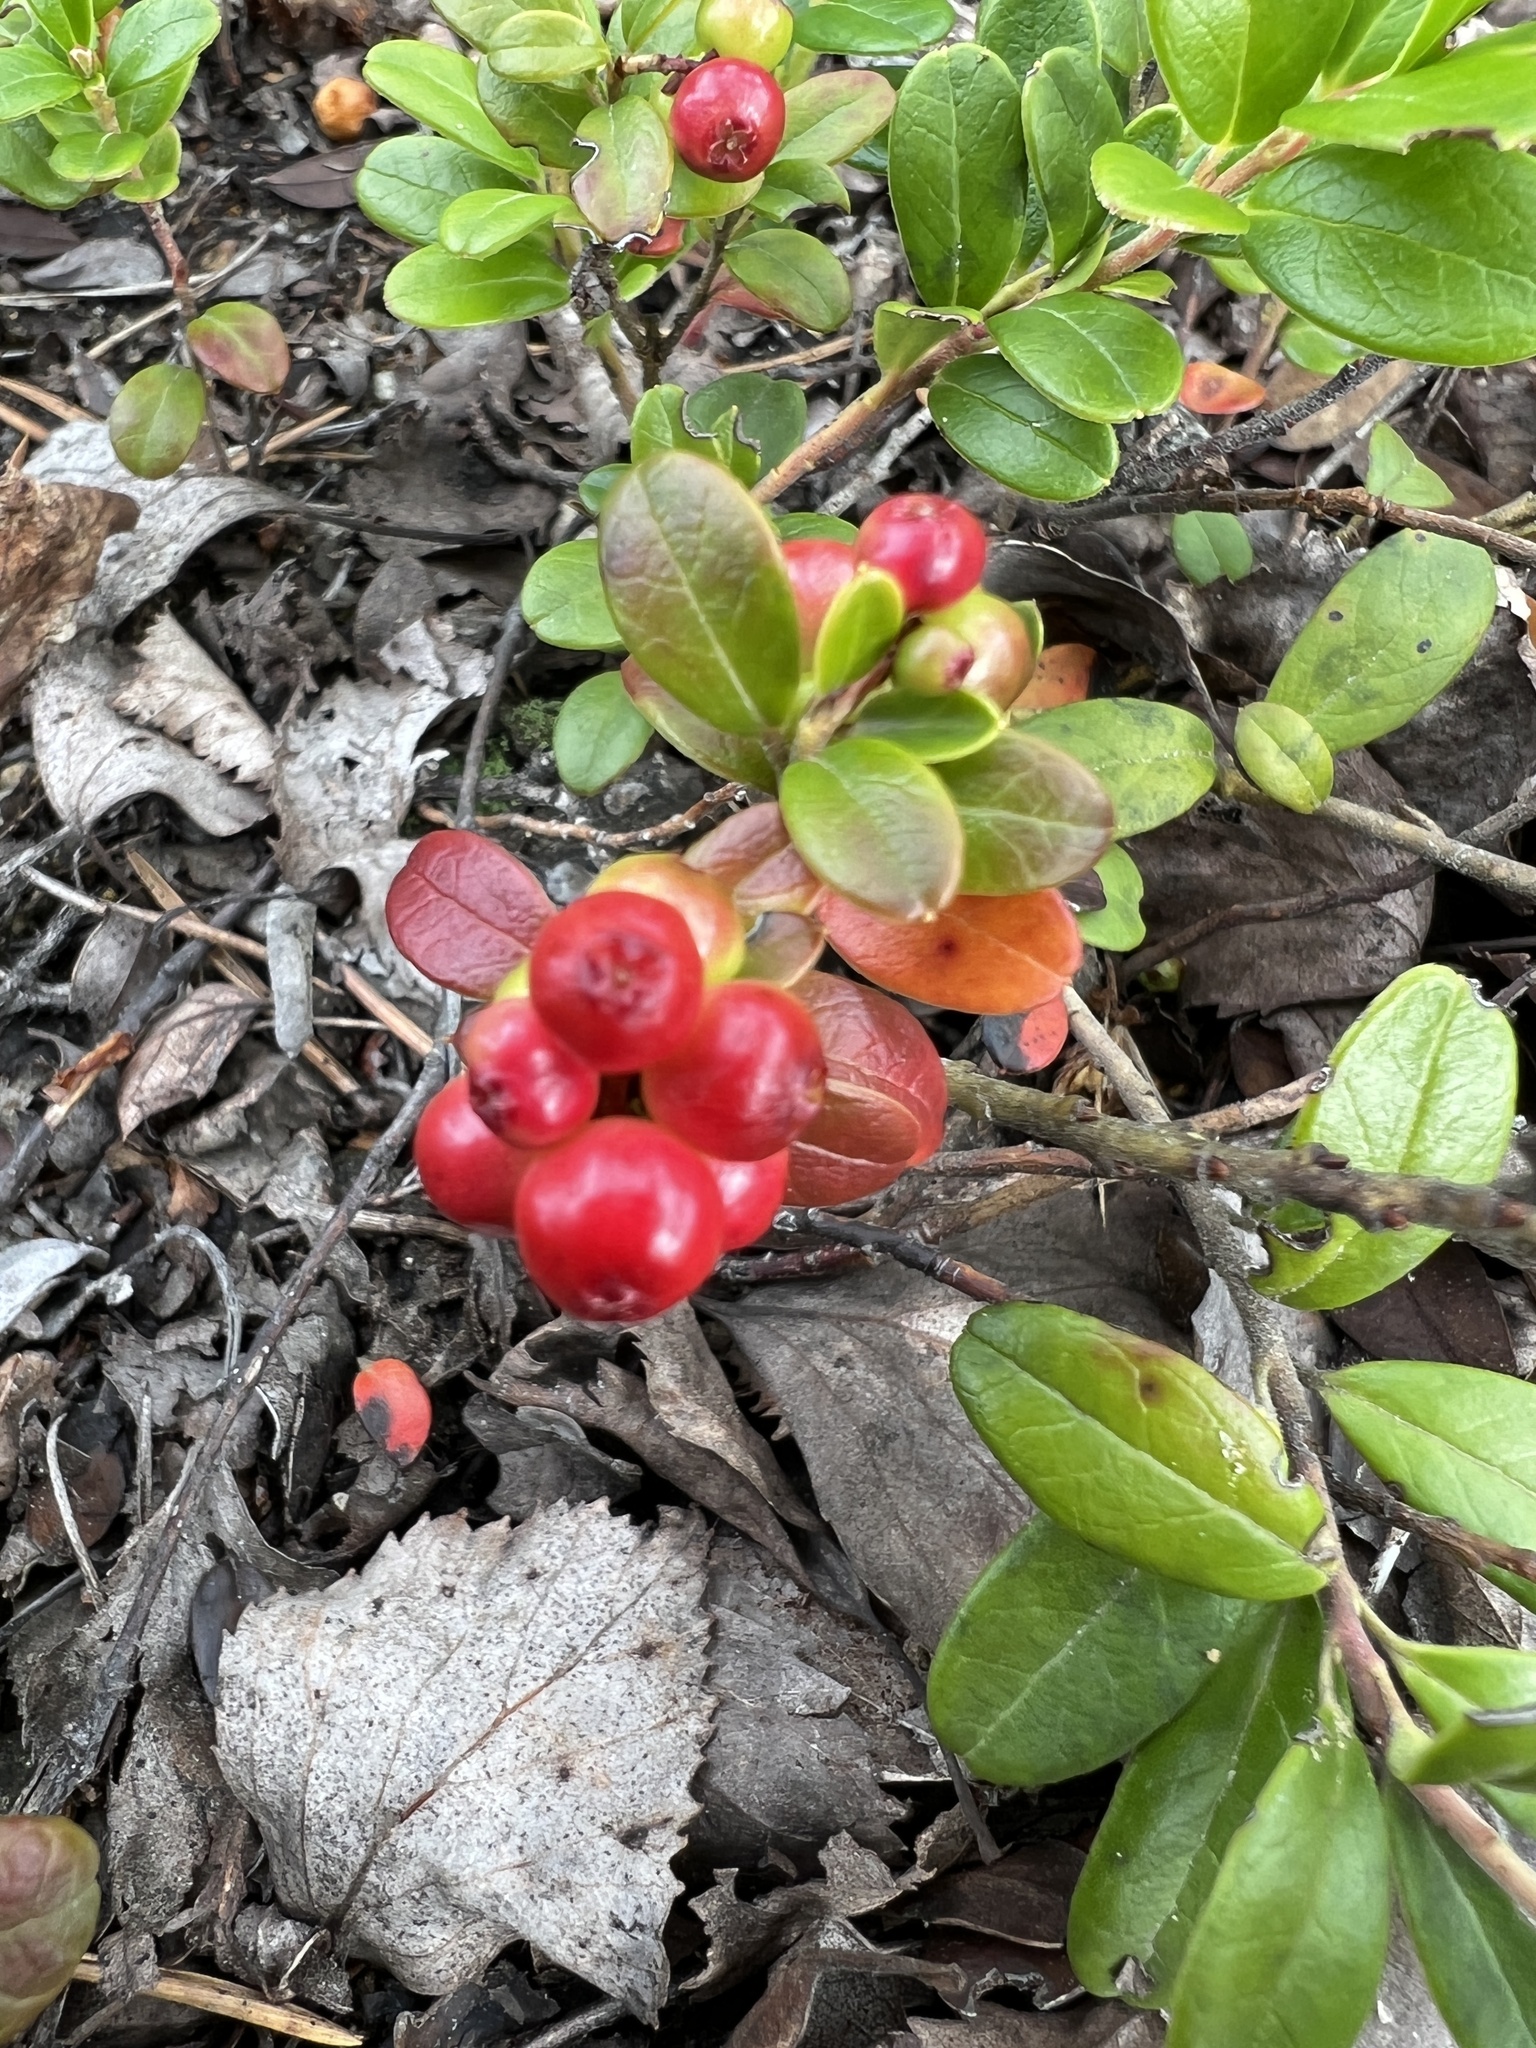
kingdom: Plantae
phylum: Tracheophyta
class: Magnoliopsida
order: Ericales
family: Ericaceae
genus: Vaccinium
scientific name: Vaccinium vitis-idaea
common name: Cowberry
